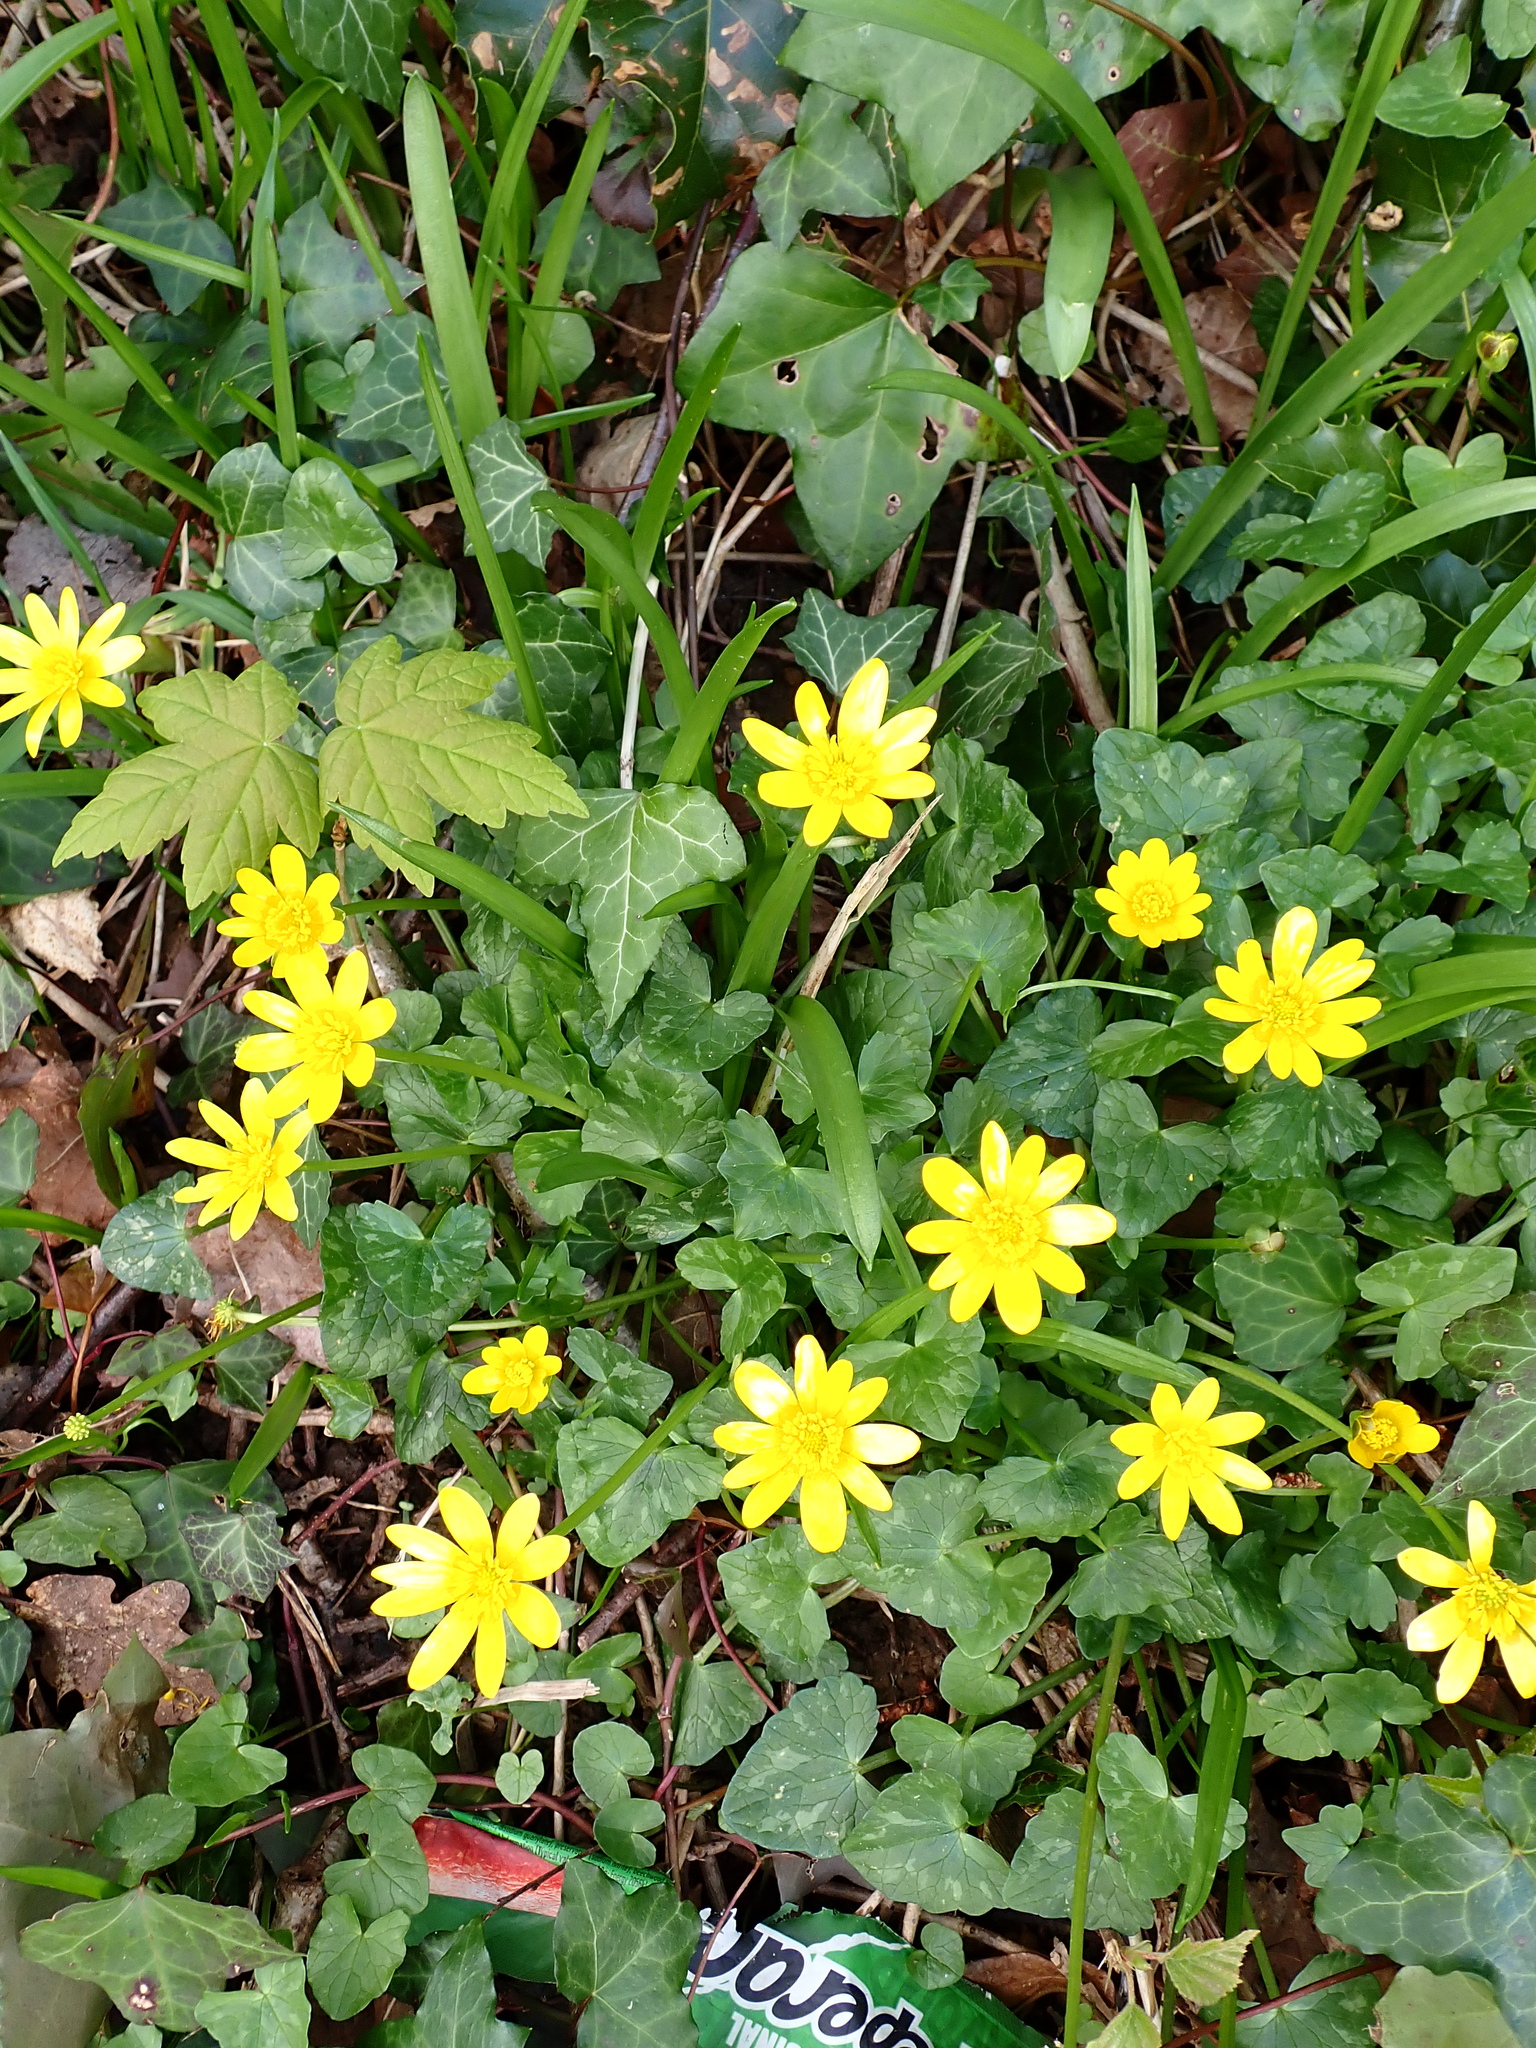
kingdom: Plantae
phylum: Tracheophyta
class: Magnoliopsida
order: Ranunculales
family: Ranunculaceae
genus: Ficaria
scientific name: Ficaria verna
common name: Lesser celandine
